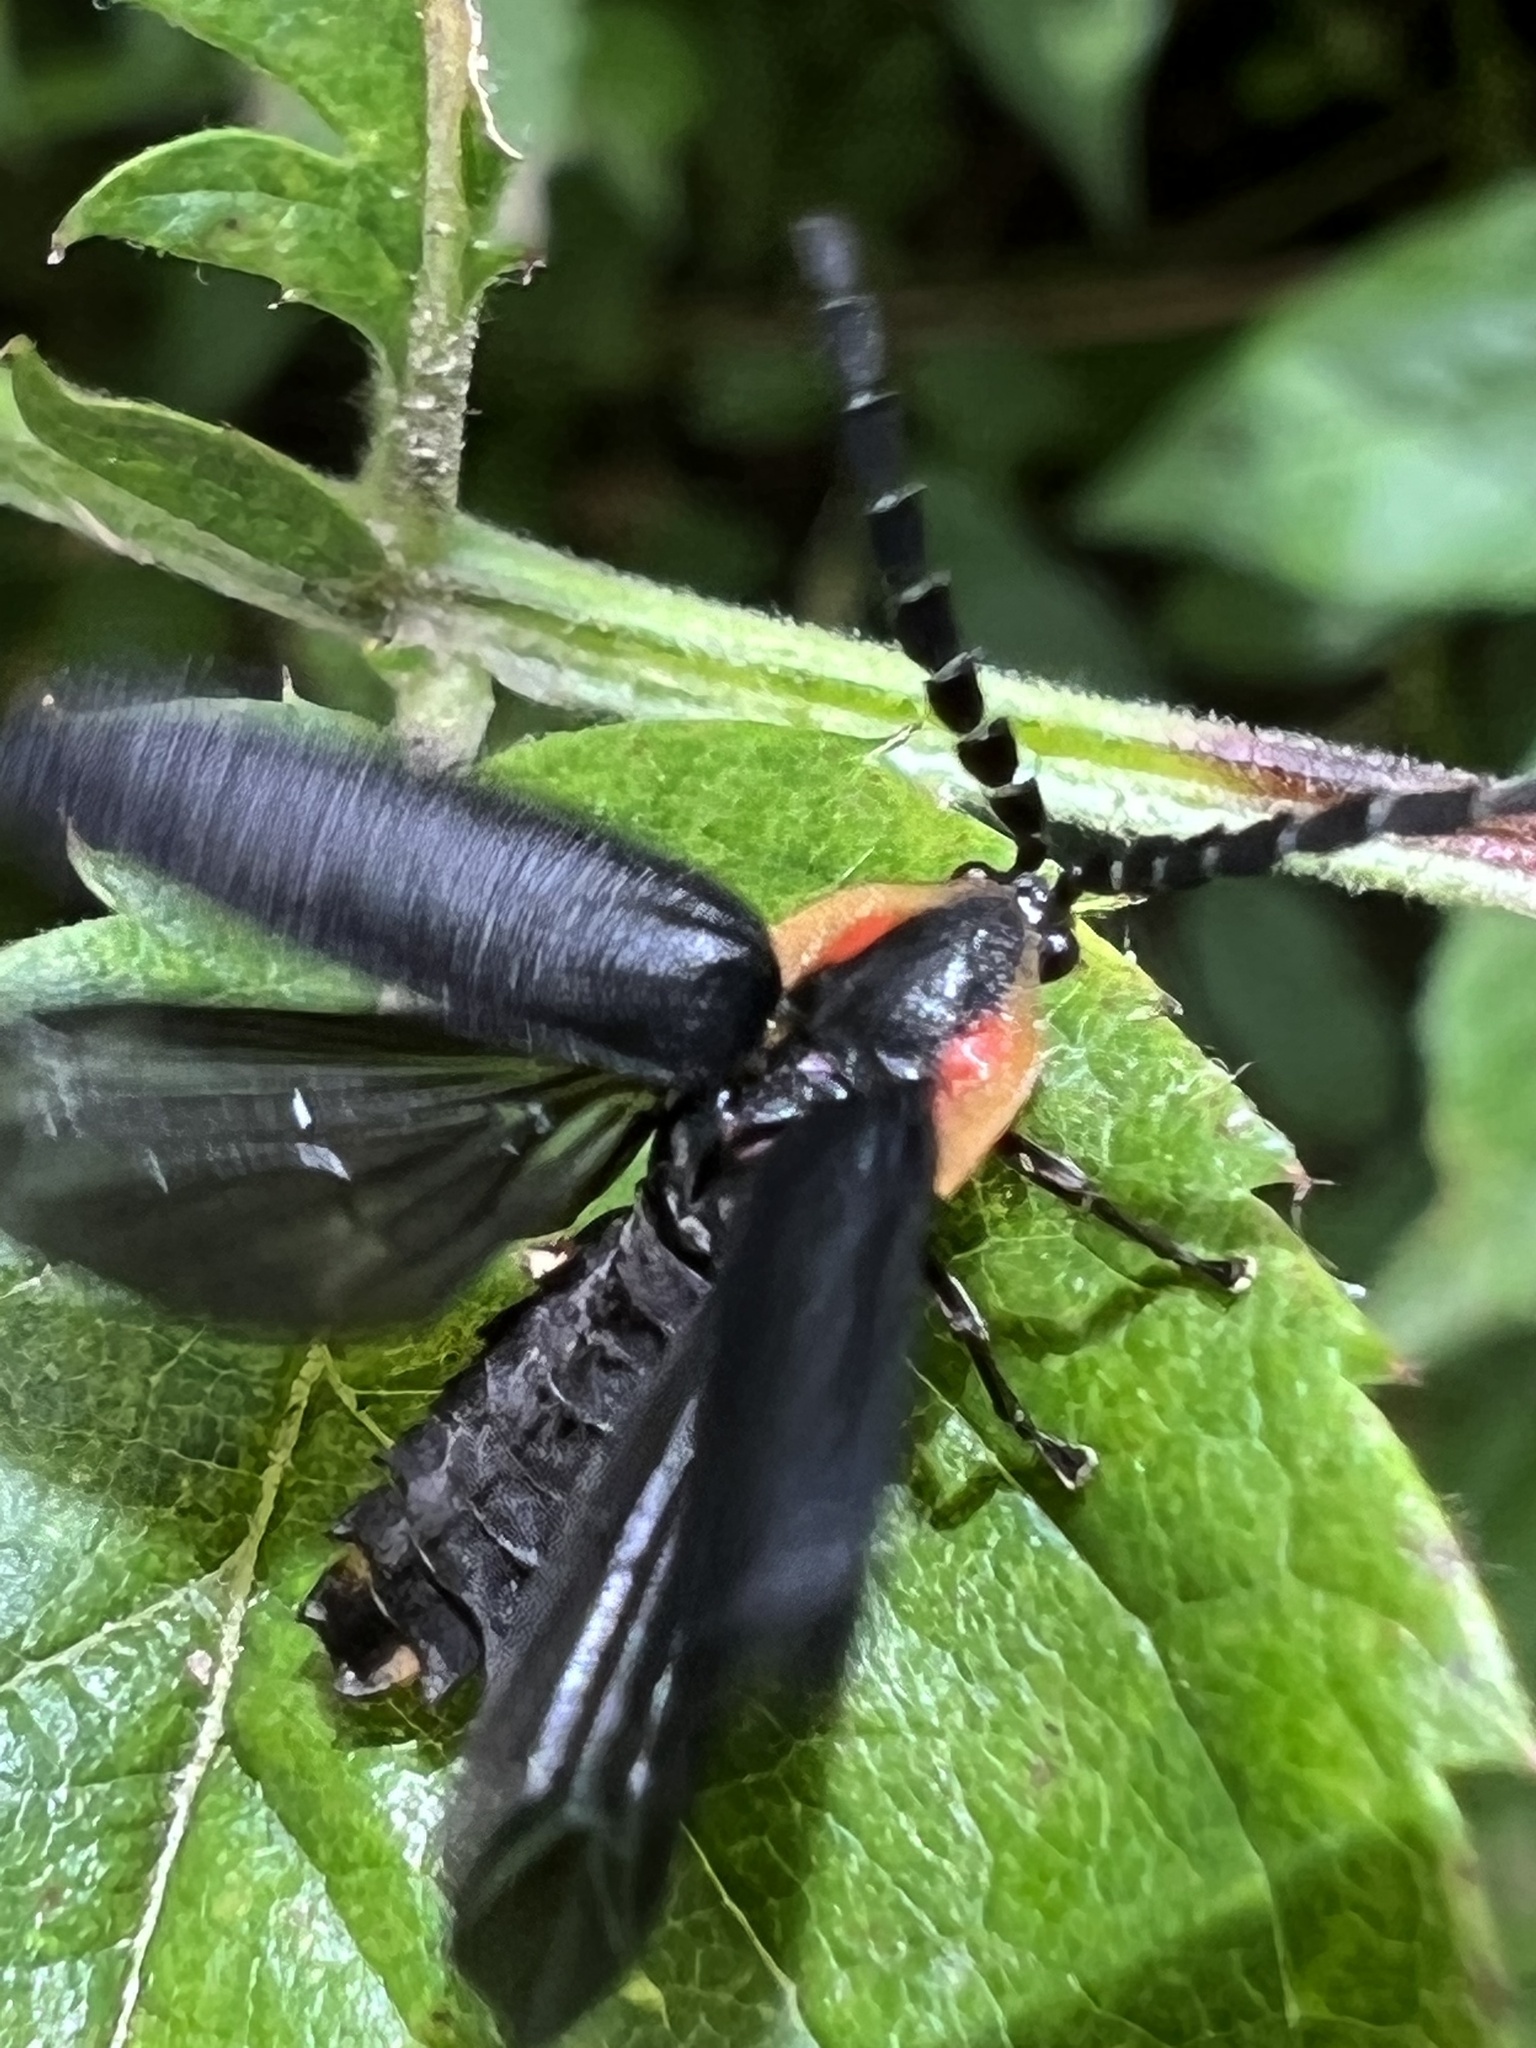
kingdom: Animalia
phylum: Arthropoda
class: Insecta
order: Coleoptera
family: Lampyridae
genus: Lucidota
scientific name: Lucidota atra
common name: Black firefly
